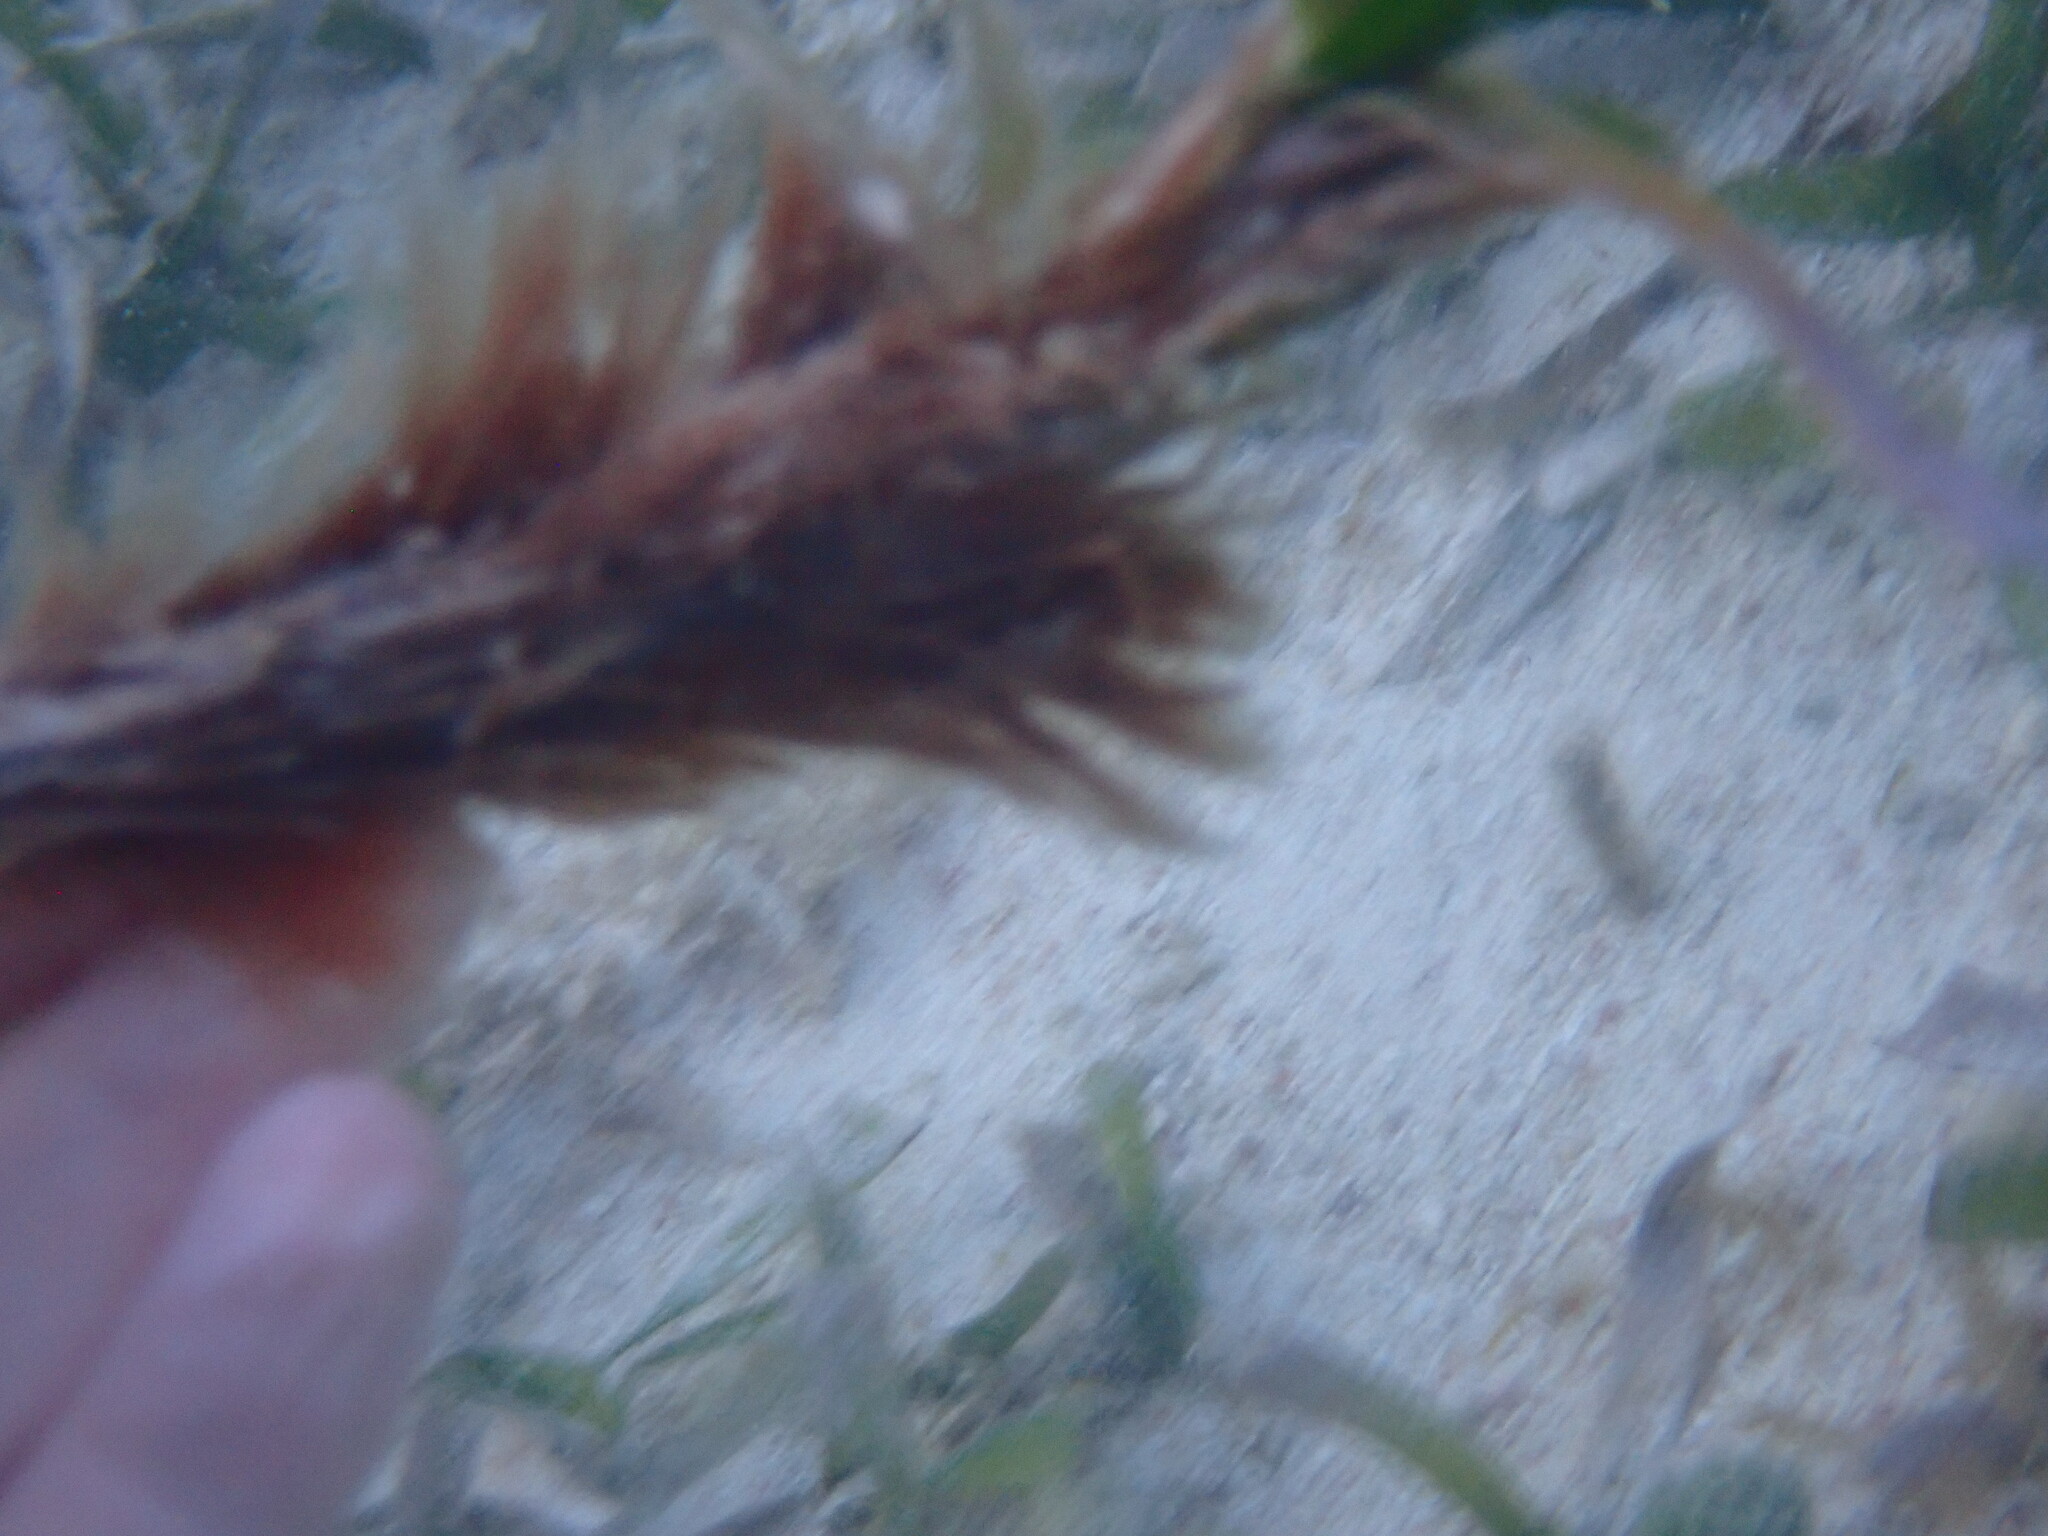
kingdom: Plantae
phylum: Tracheophyta
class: Liliopsida
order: Alismatales
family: Hydrocharitaceae
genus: Thalassia
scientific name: Thalassia testudinum
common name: Species code: tt
